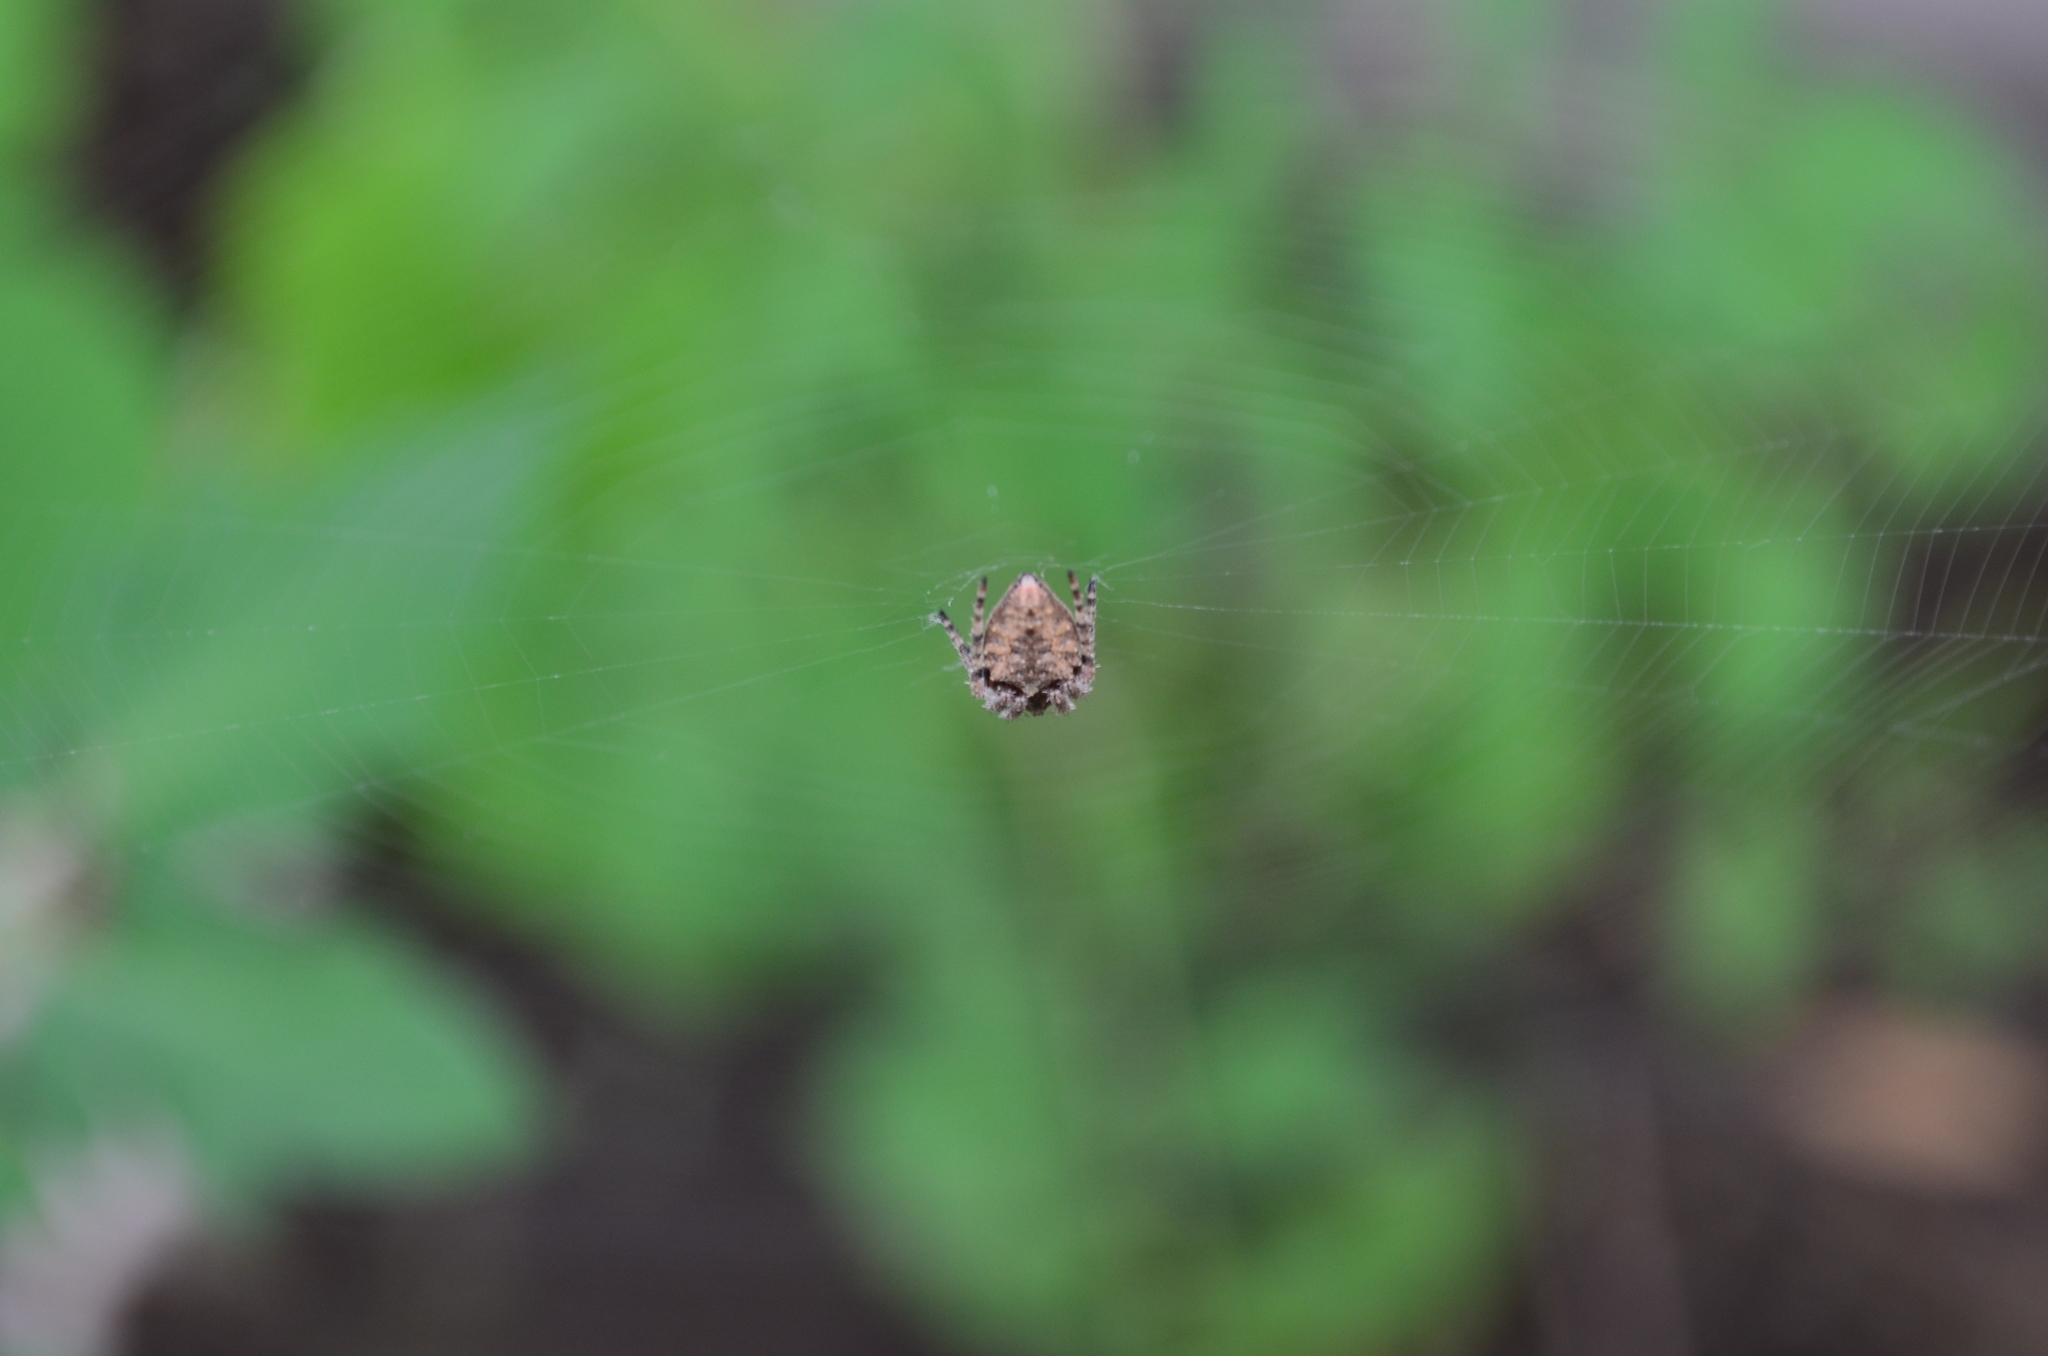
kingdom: Animalia
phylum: Arthropoda
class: Arachnida
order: Araneae
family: Araneidae
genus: Parawixia
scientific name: Parawixia audax
